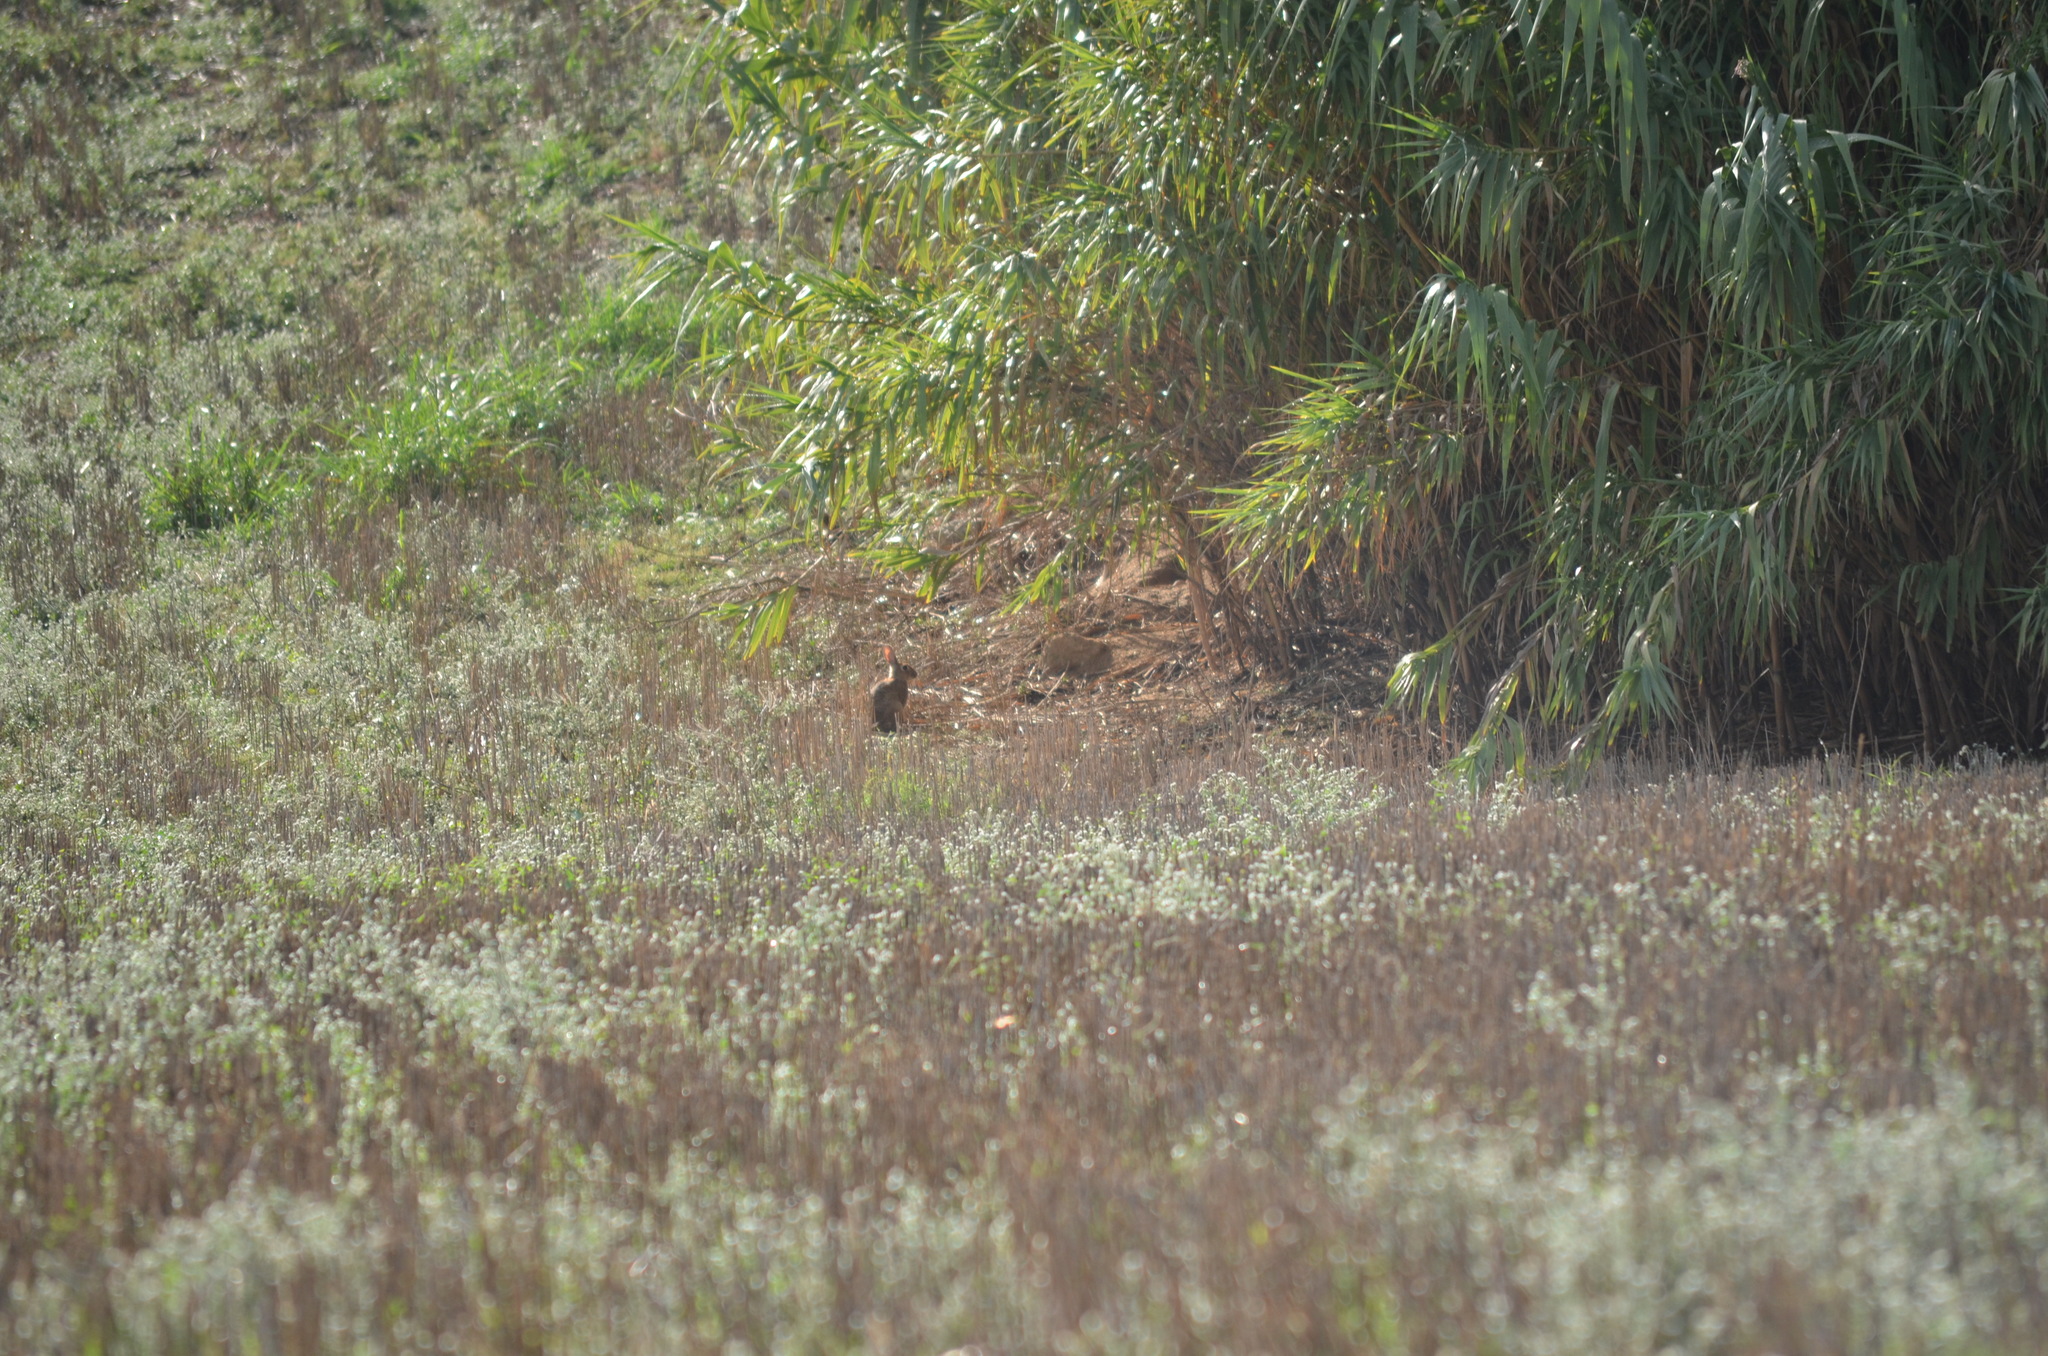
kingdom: Animalia
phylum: Chordata
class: Mammalia
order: Lagomorpha
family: Leporidae
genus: Oryctolagus
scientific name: Oryctolagus cuniculus
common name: European rabbit
